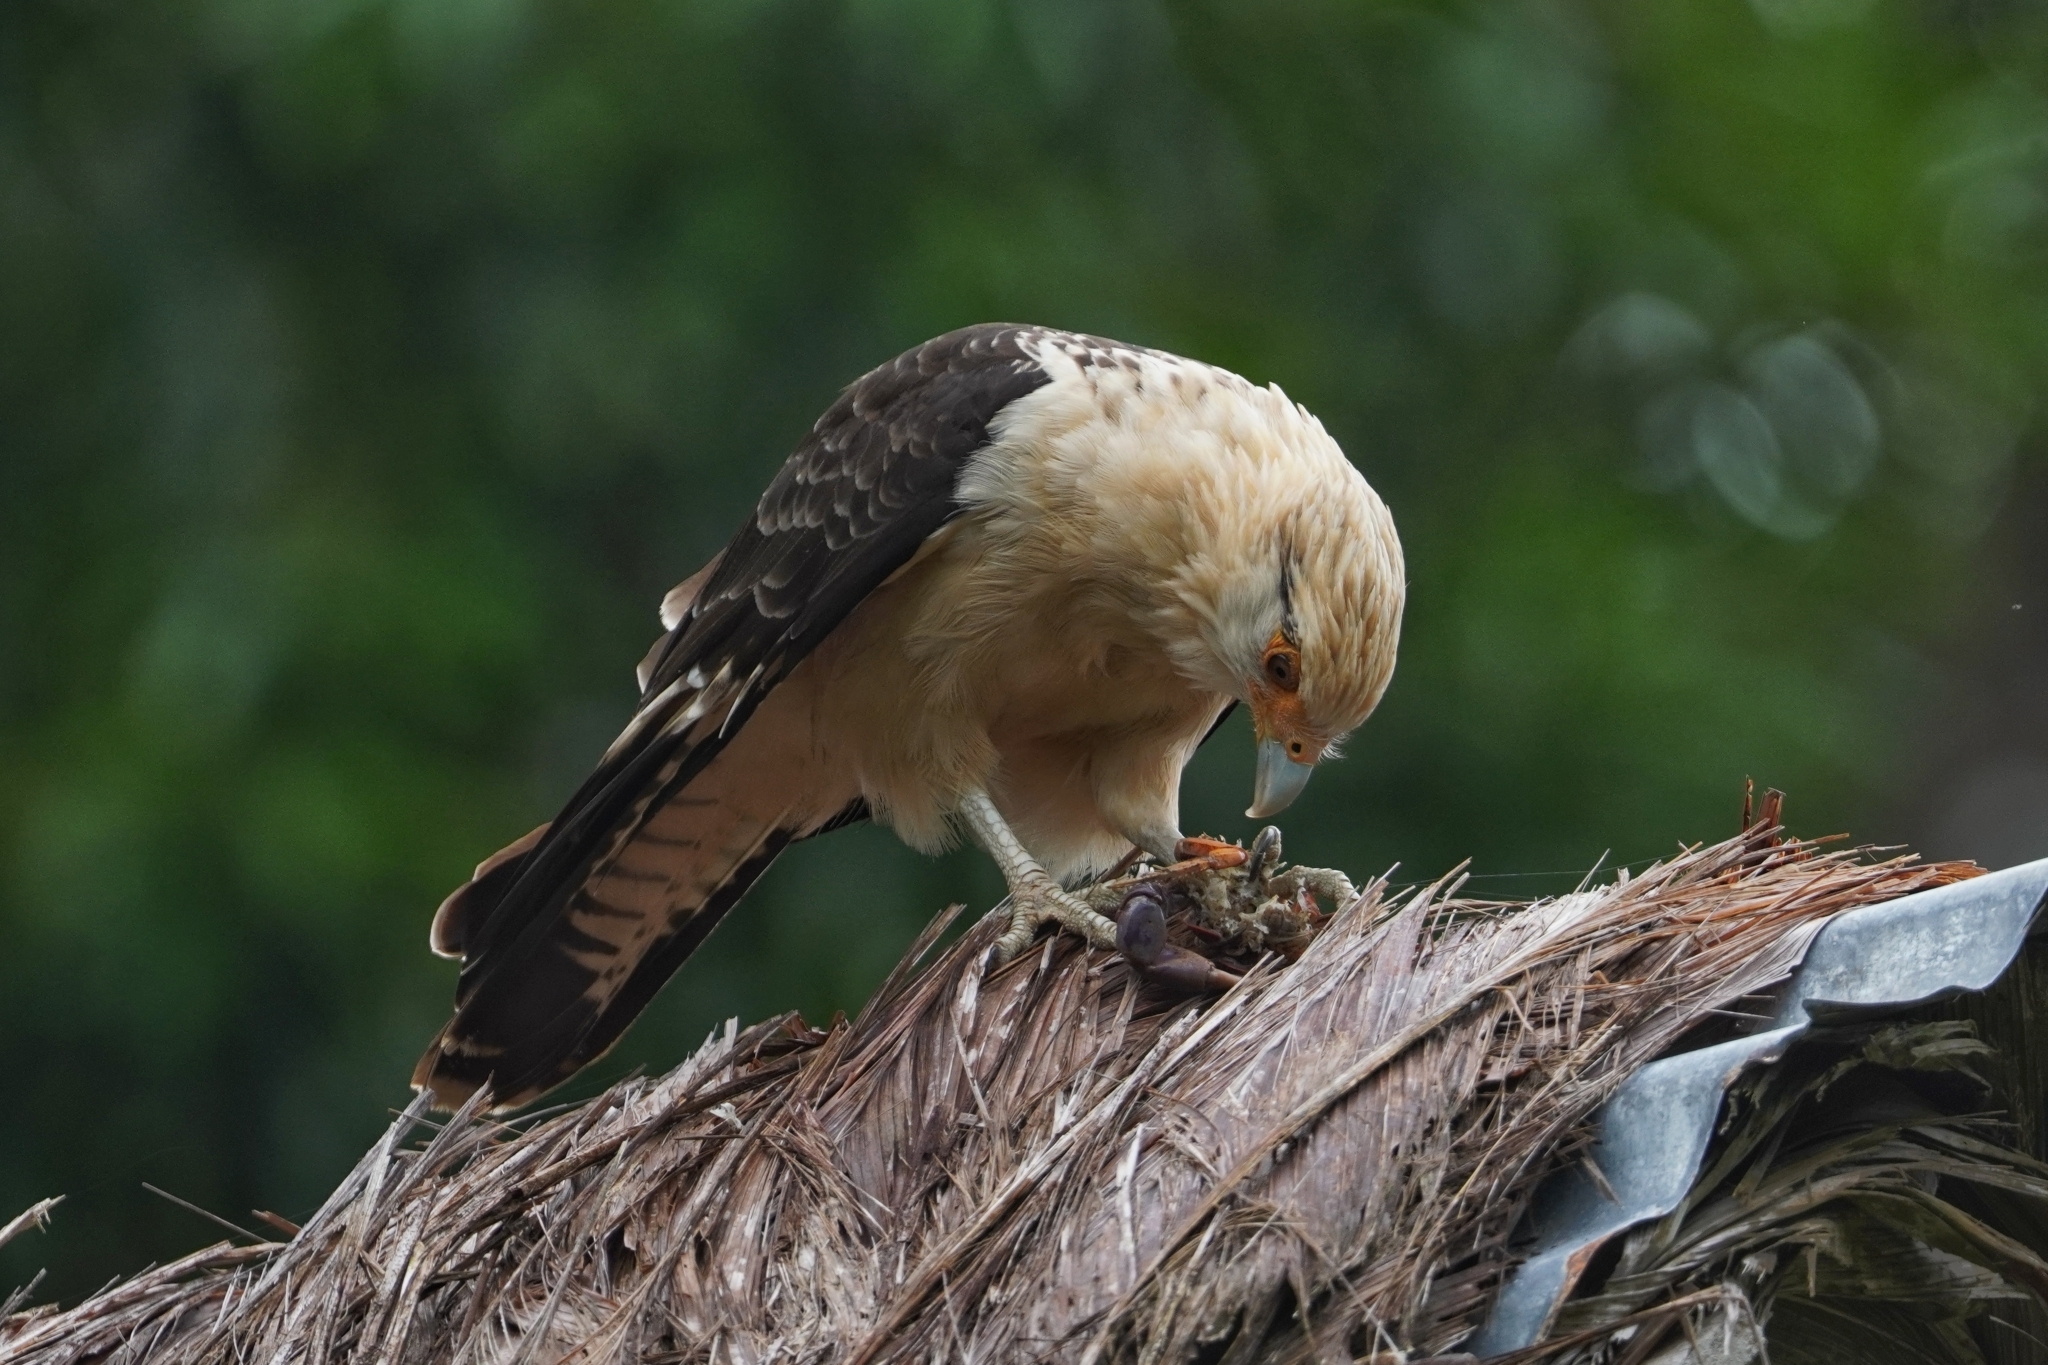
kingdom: Animalia
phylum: Chordata
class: Aves
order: Falconiformes
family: Falconidae
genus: Daptrius
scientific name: Daptrius
